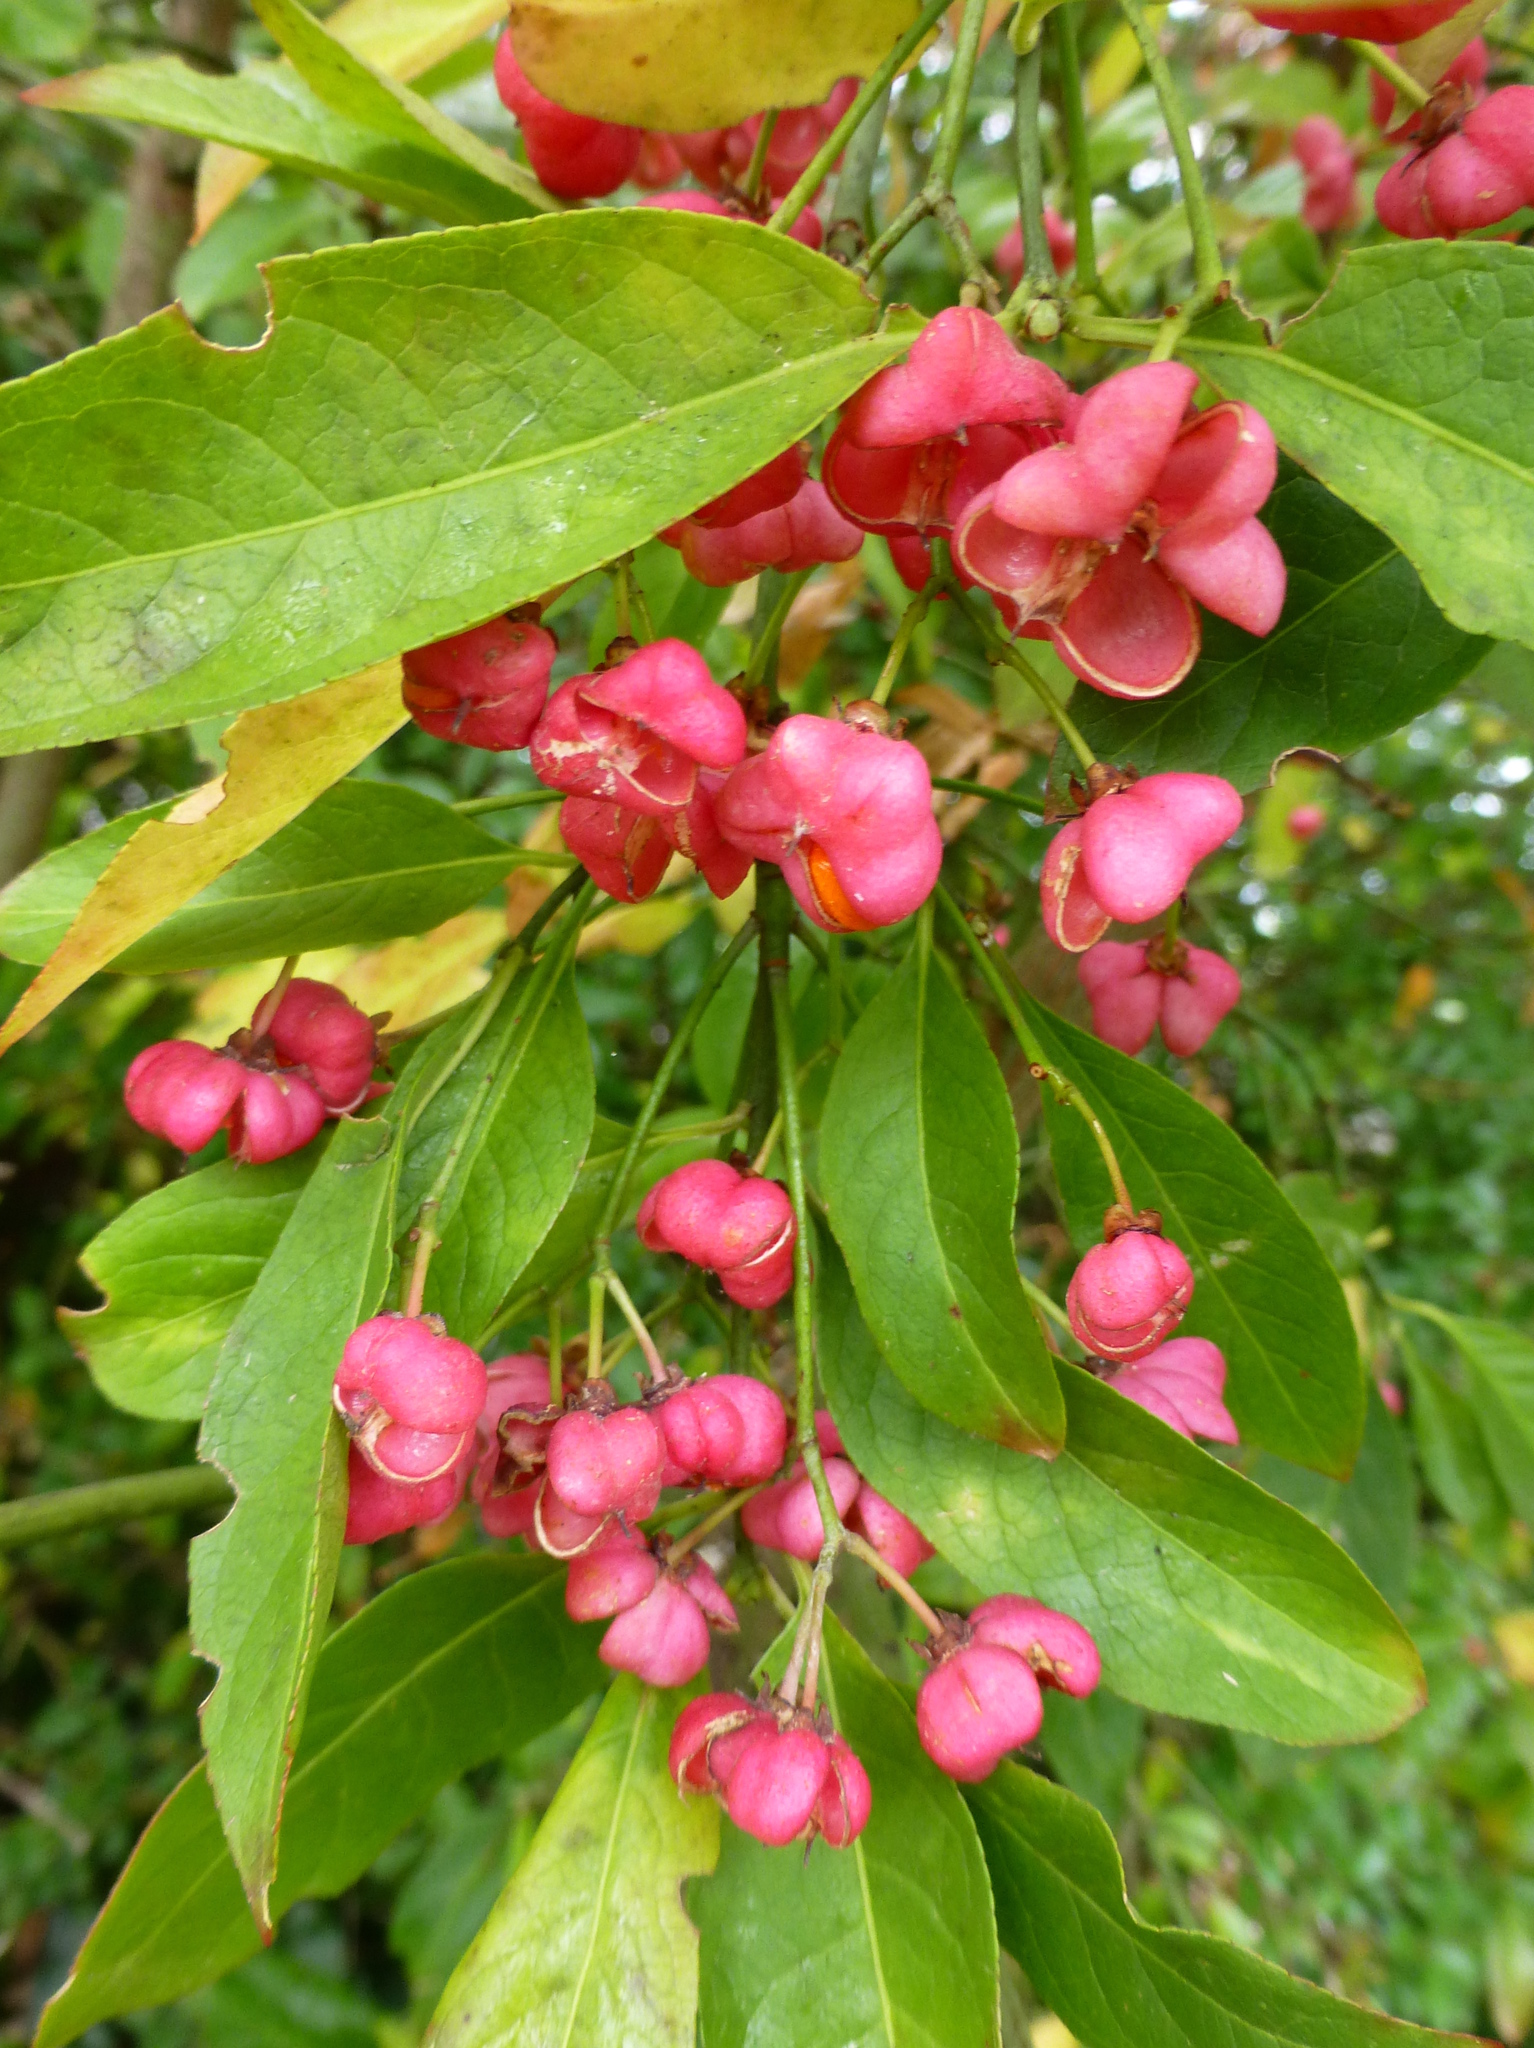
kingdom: Plantae
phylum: Tracheophyta
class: Magnoliopsida
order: Celastrales
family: Celastraceae
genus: Euonymus
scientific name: Euonymus europaeus
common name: Spindle
